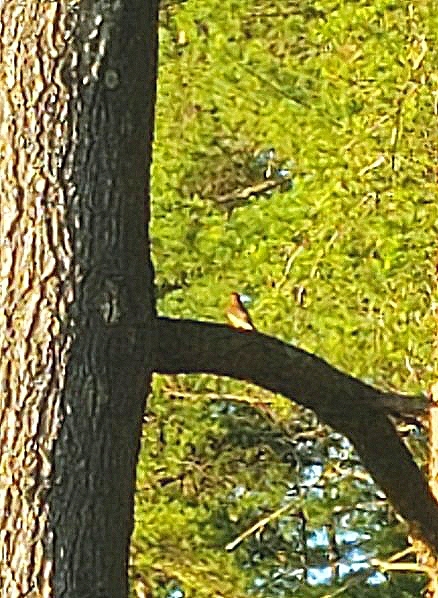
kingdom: Animalia
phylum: Chordata
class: Aves
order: Passeriformes
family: Bombycillidae
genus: Bombycilla
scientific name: Bombycilla cedrorum
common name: Cedar waxwing
